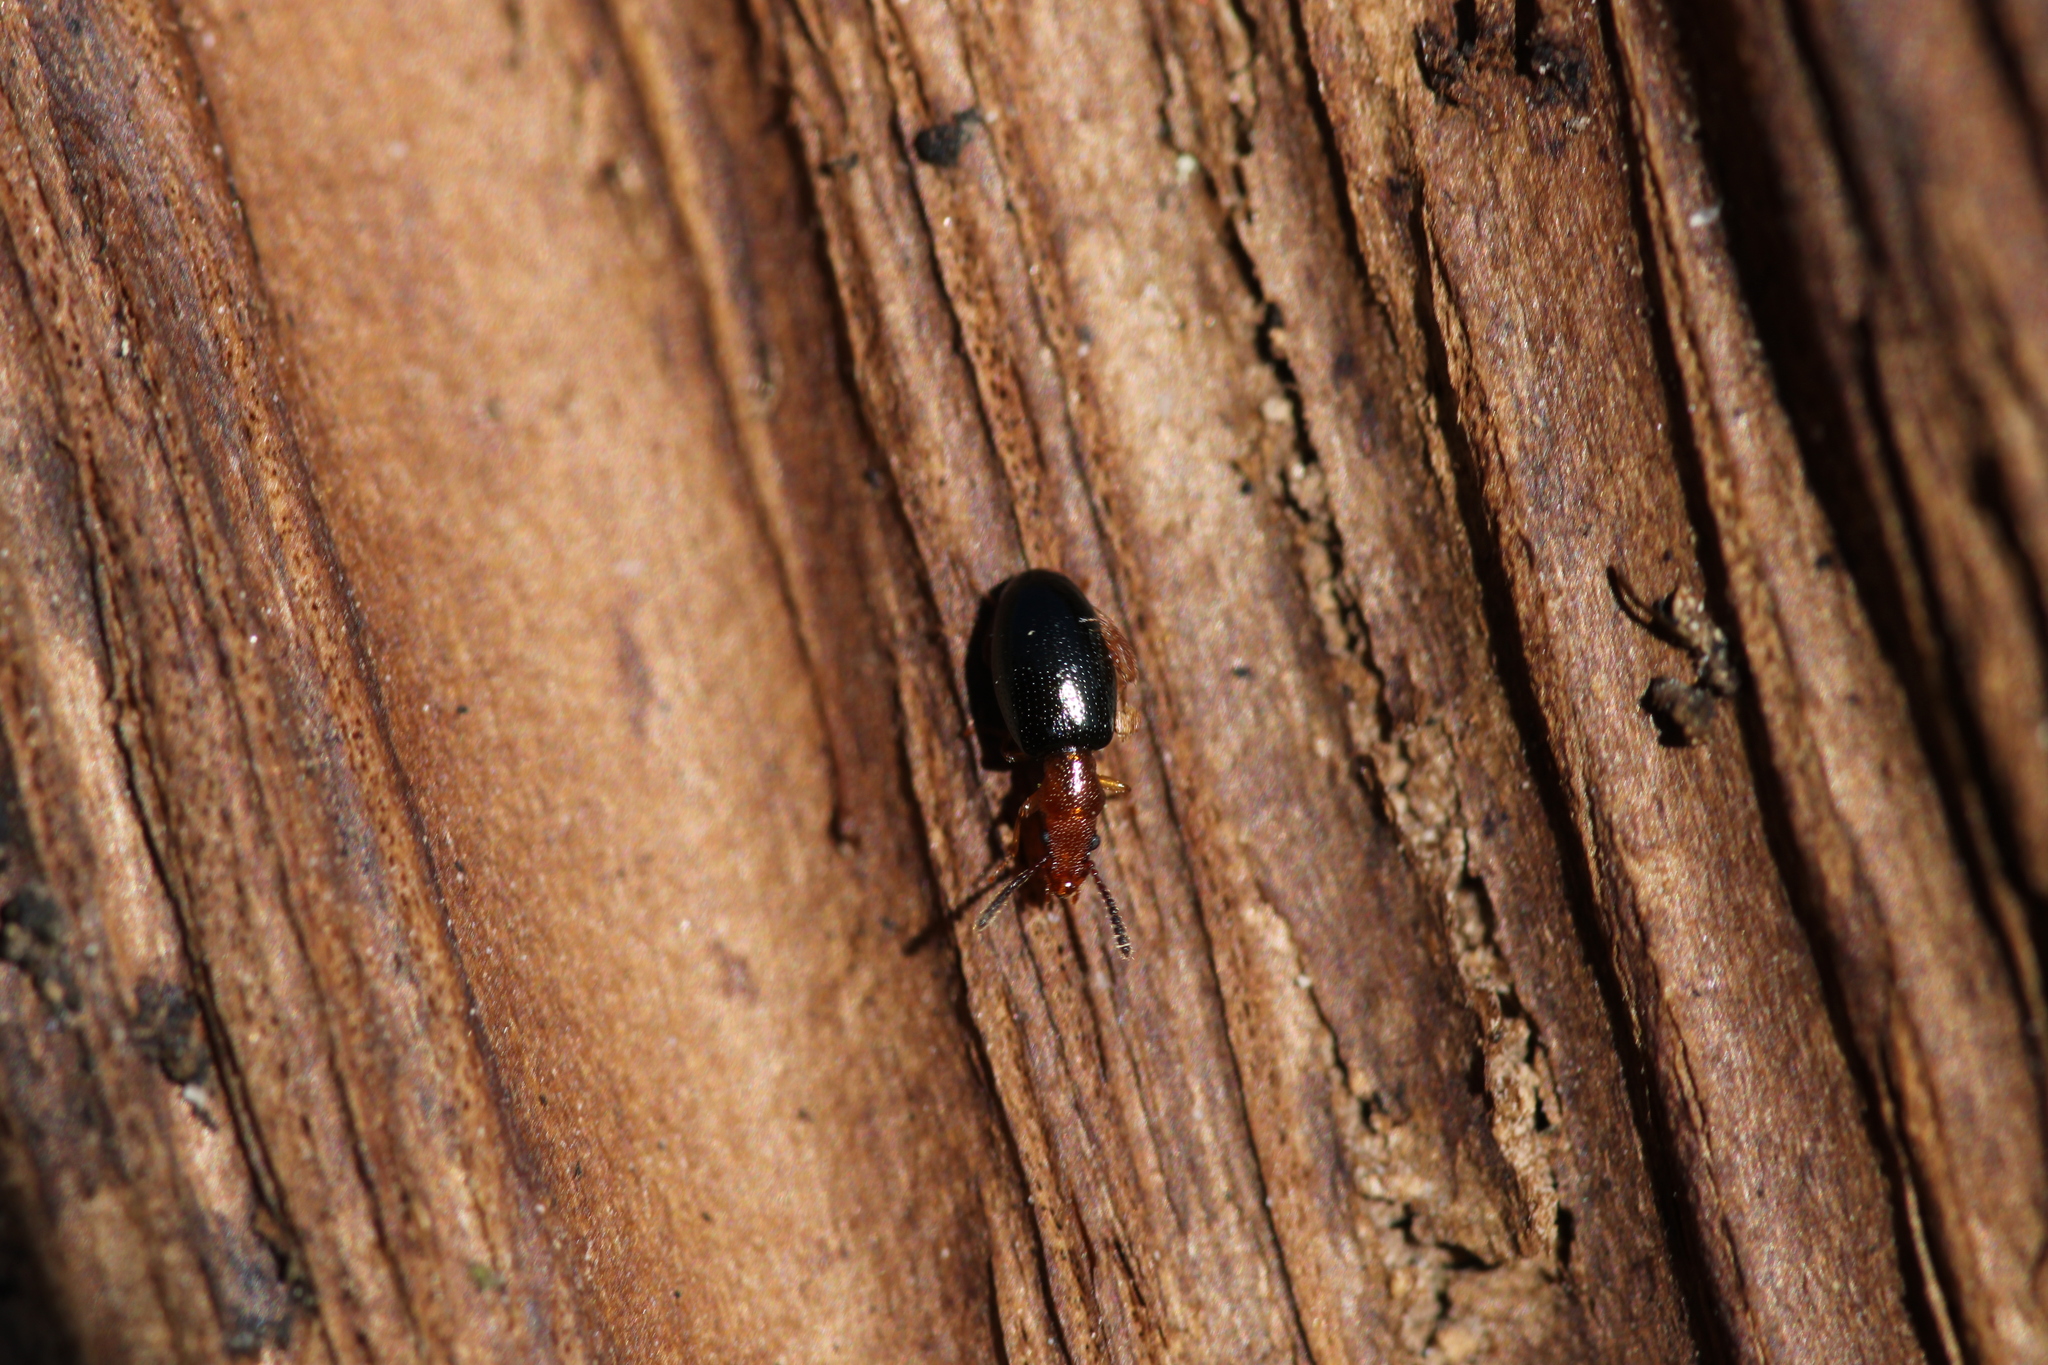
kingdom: Animalia
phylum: Arthropoda
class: Insecta
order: Coleoptera
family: Salpingidae
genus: Vincenzellus
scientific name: Vincenzellus ruficollis
